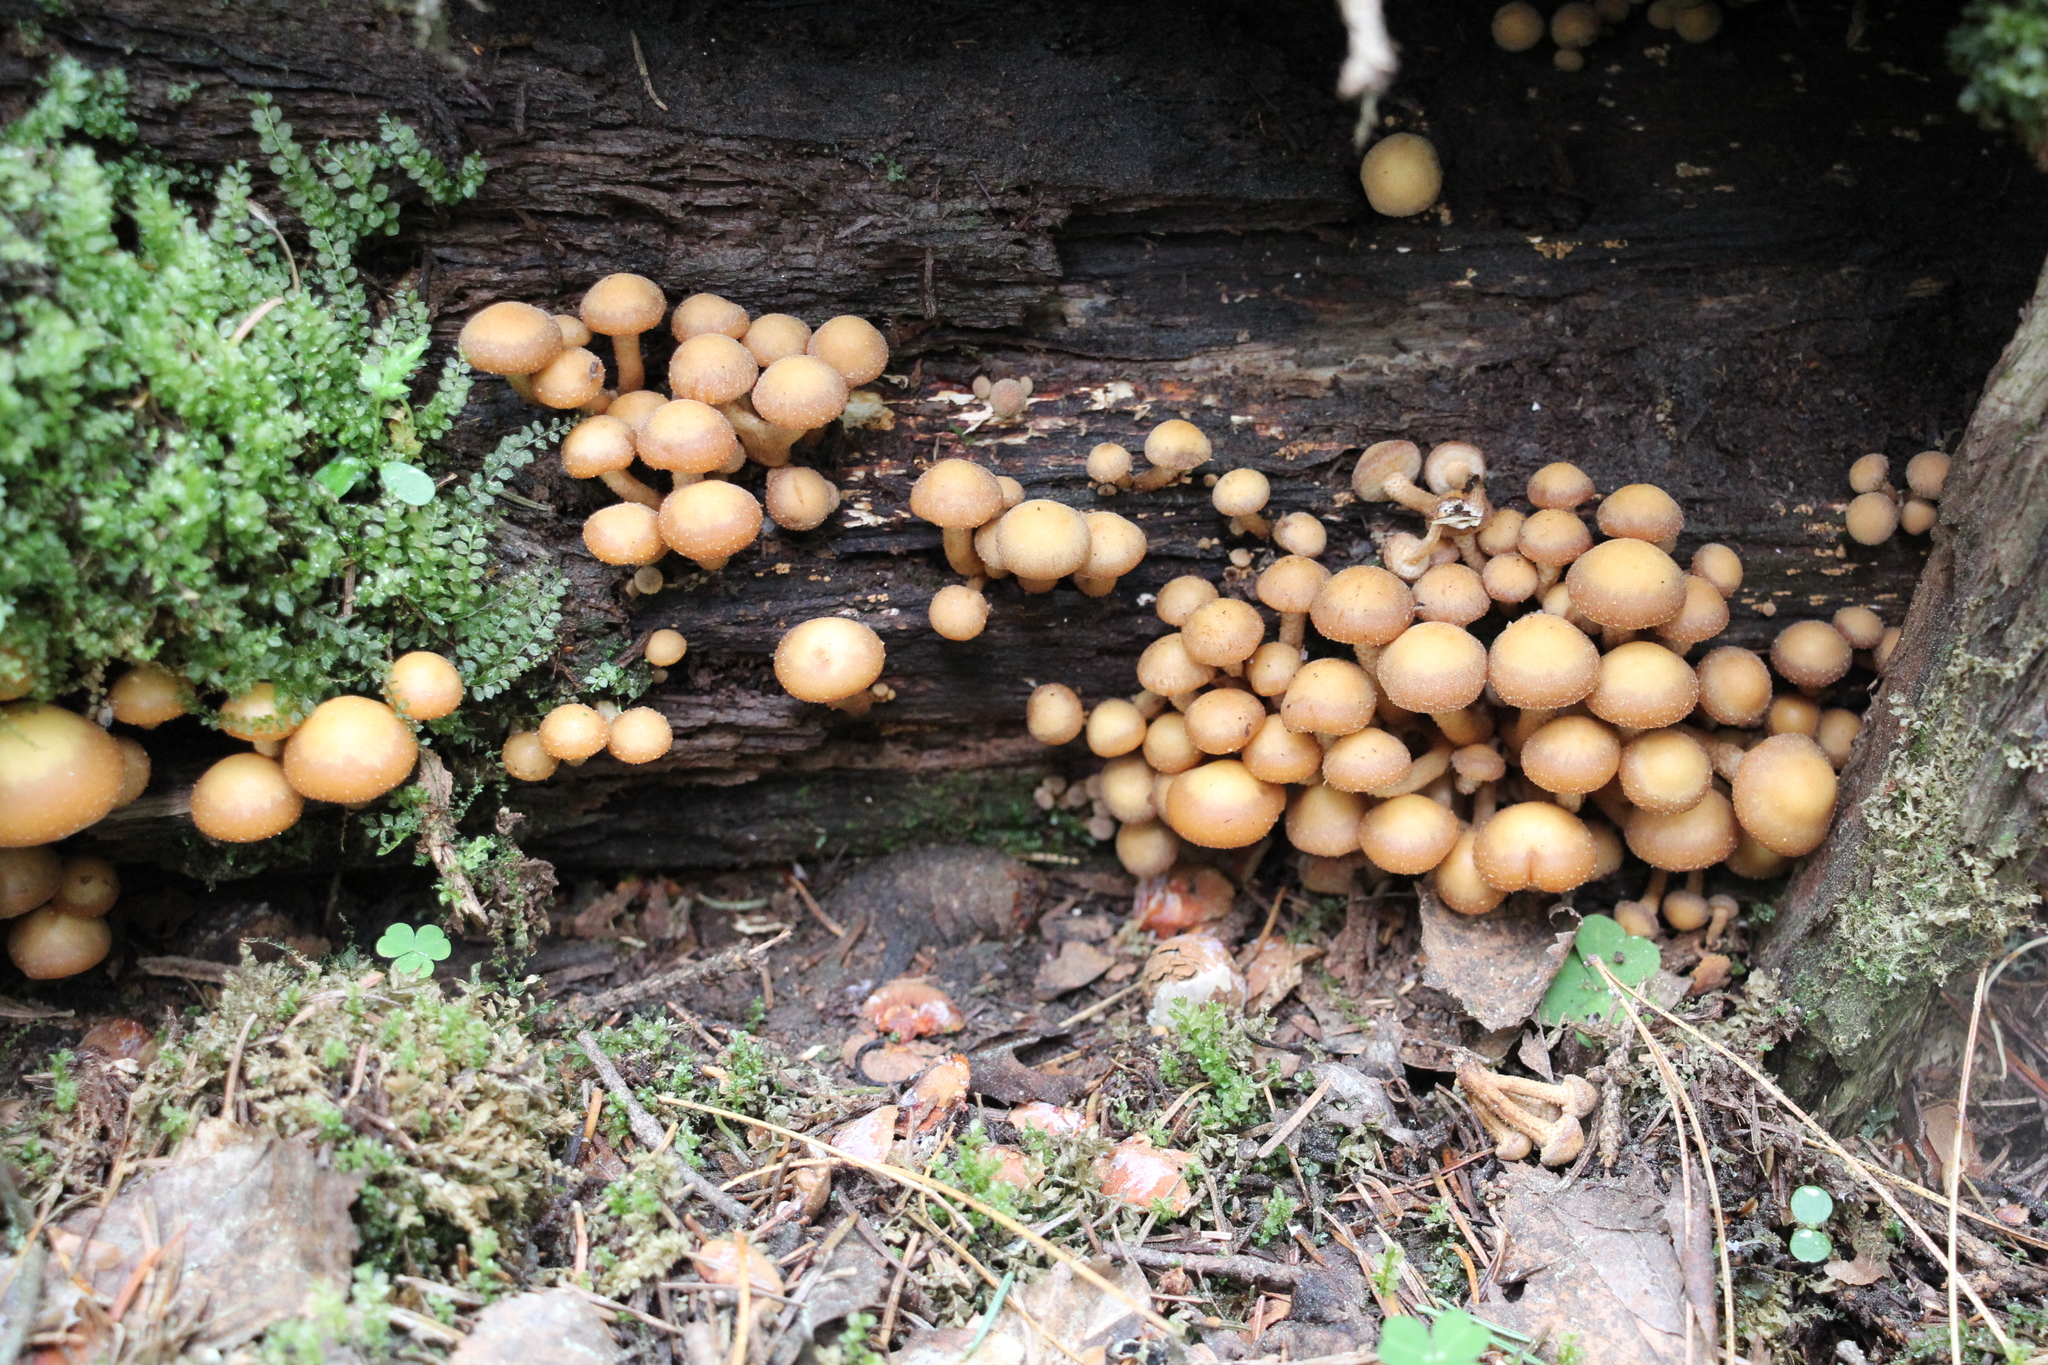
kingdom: Fungi
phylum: Basidiomycota
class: Agaricomycetes
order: Agaricales
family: Strophariaceae
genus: Kuehneromyces
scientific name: Kuehneromyces mutabilis
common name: Sheathed woodtuft
